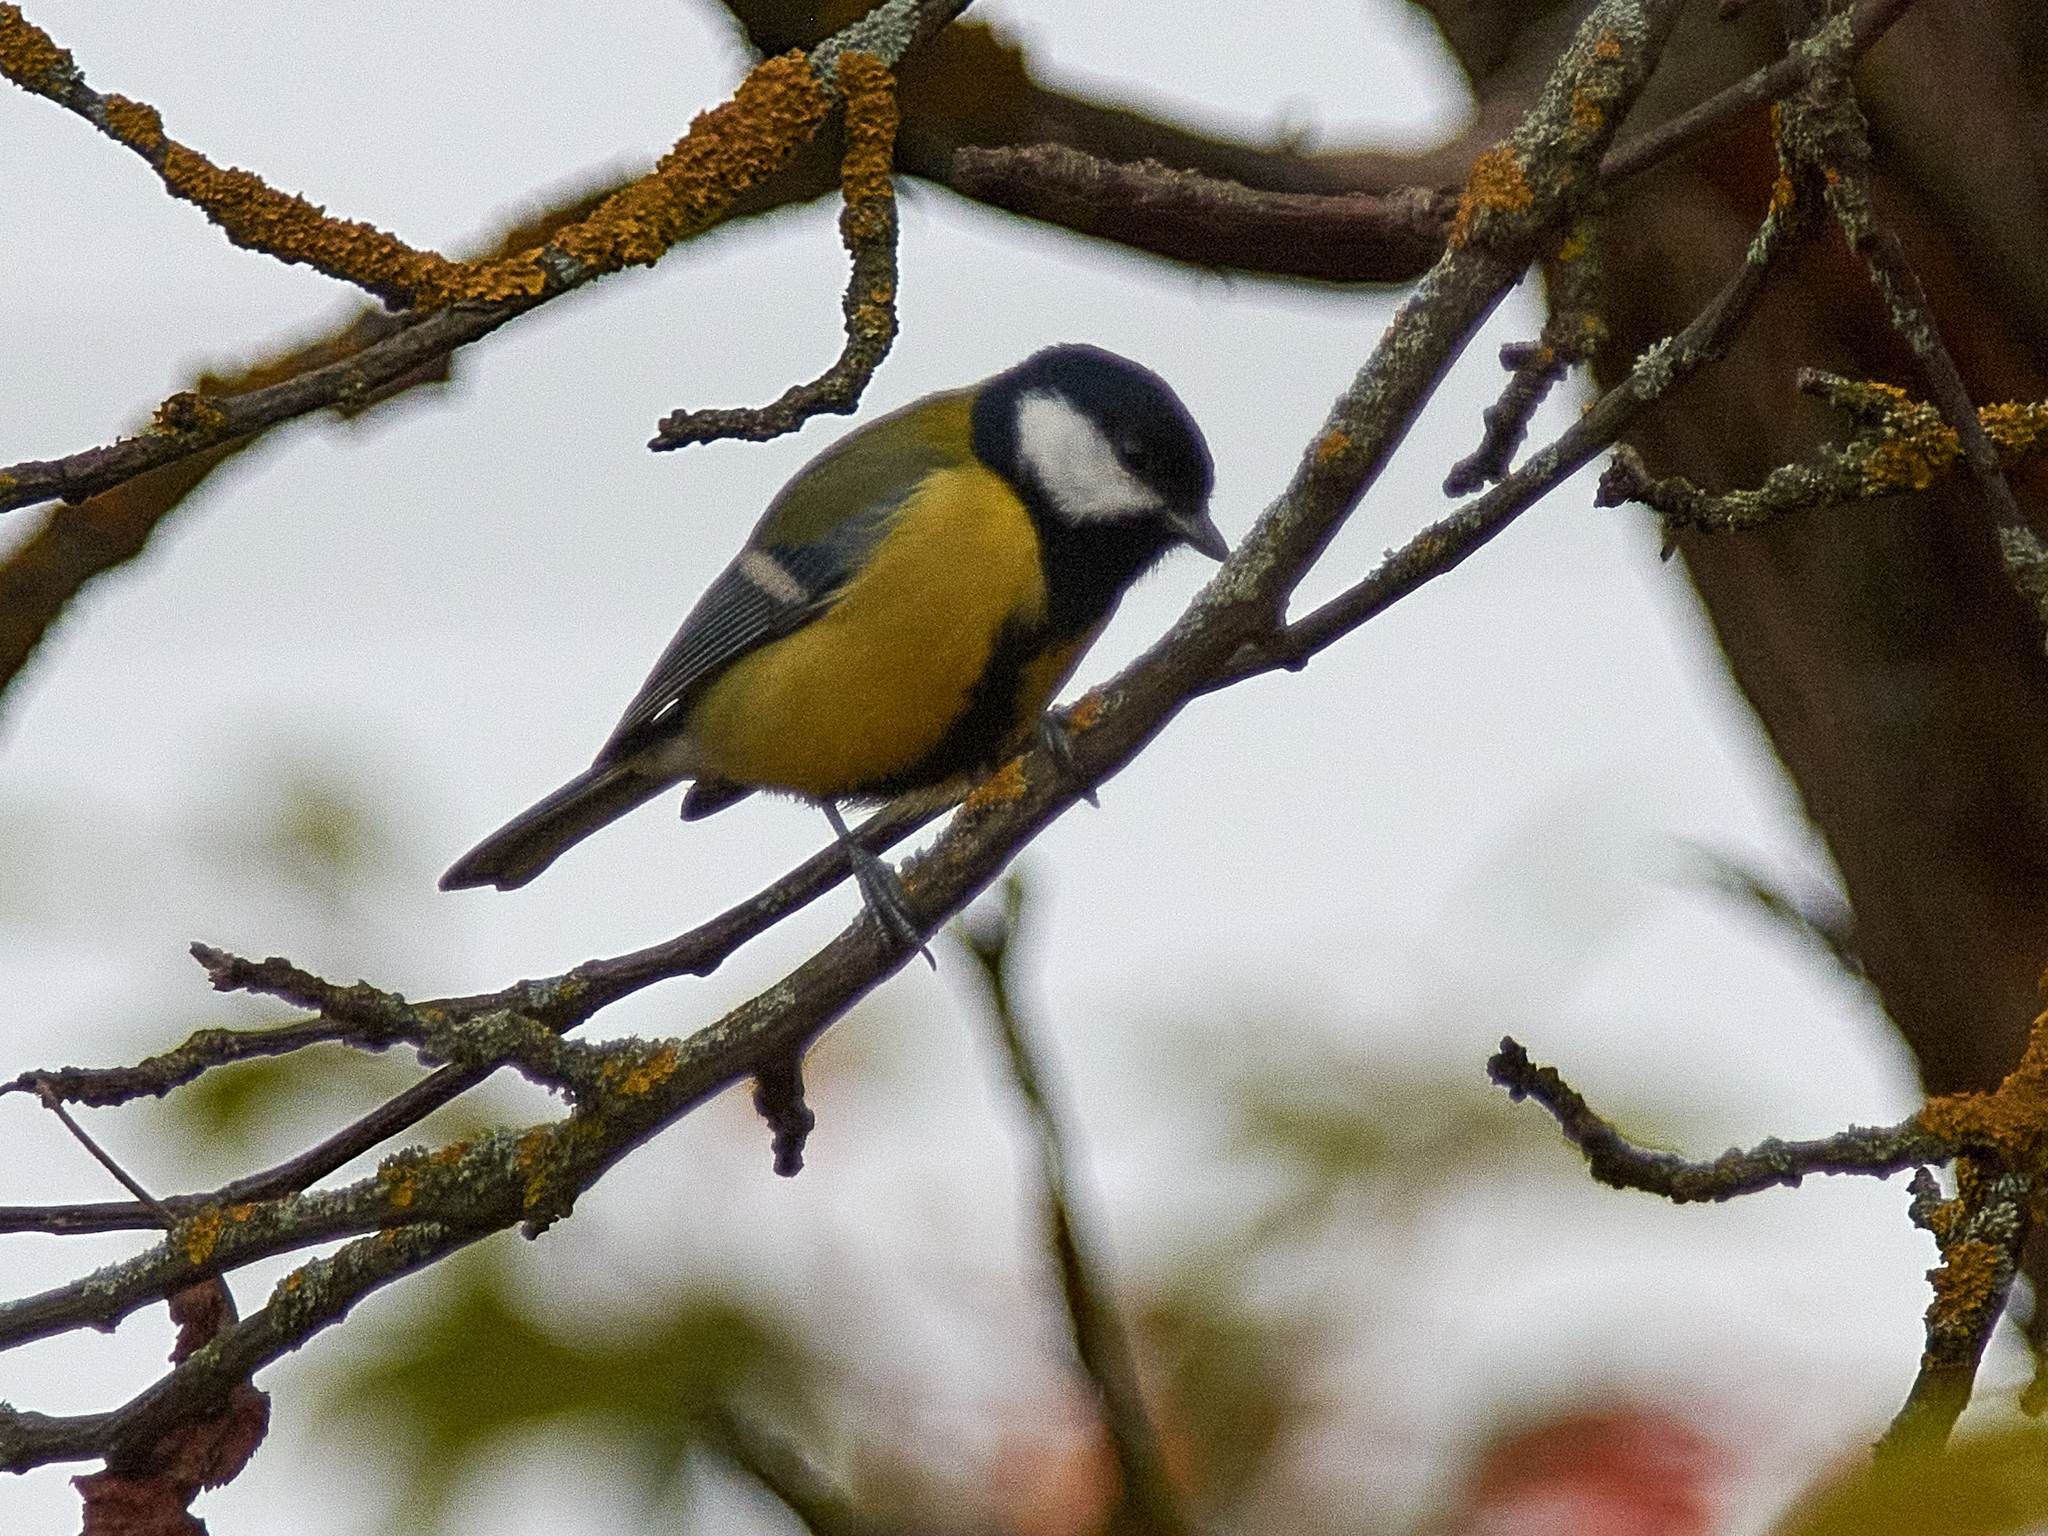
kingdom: Animalia
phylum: Chordata
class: Aves
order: Passeriformes
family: Paridae
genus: Parus
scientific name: Parus major
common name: Great tit
